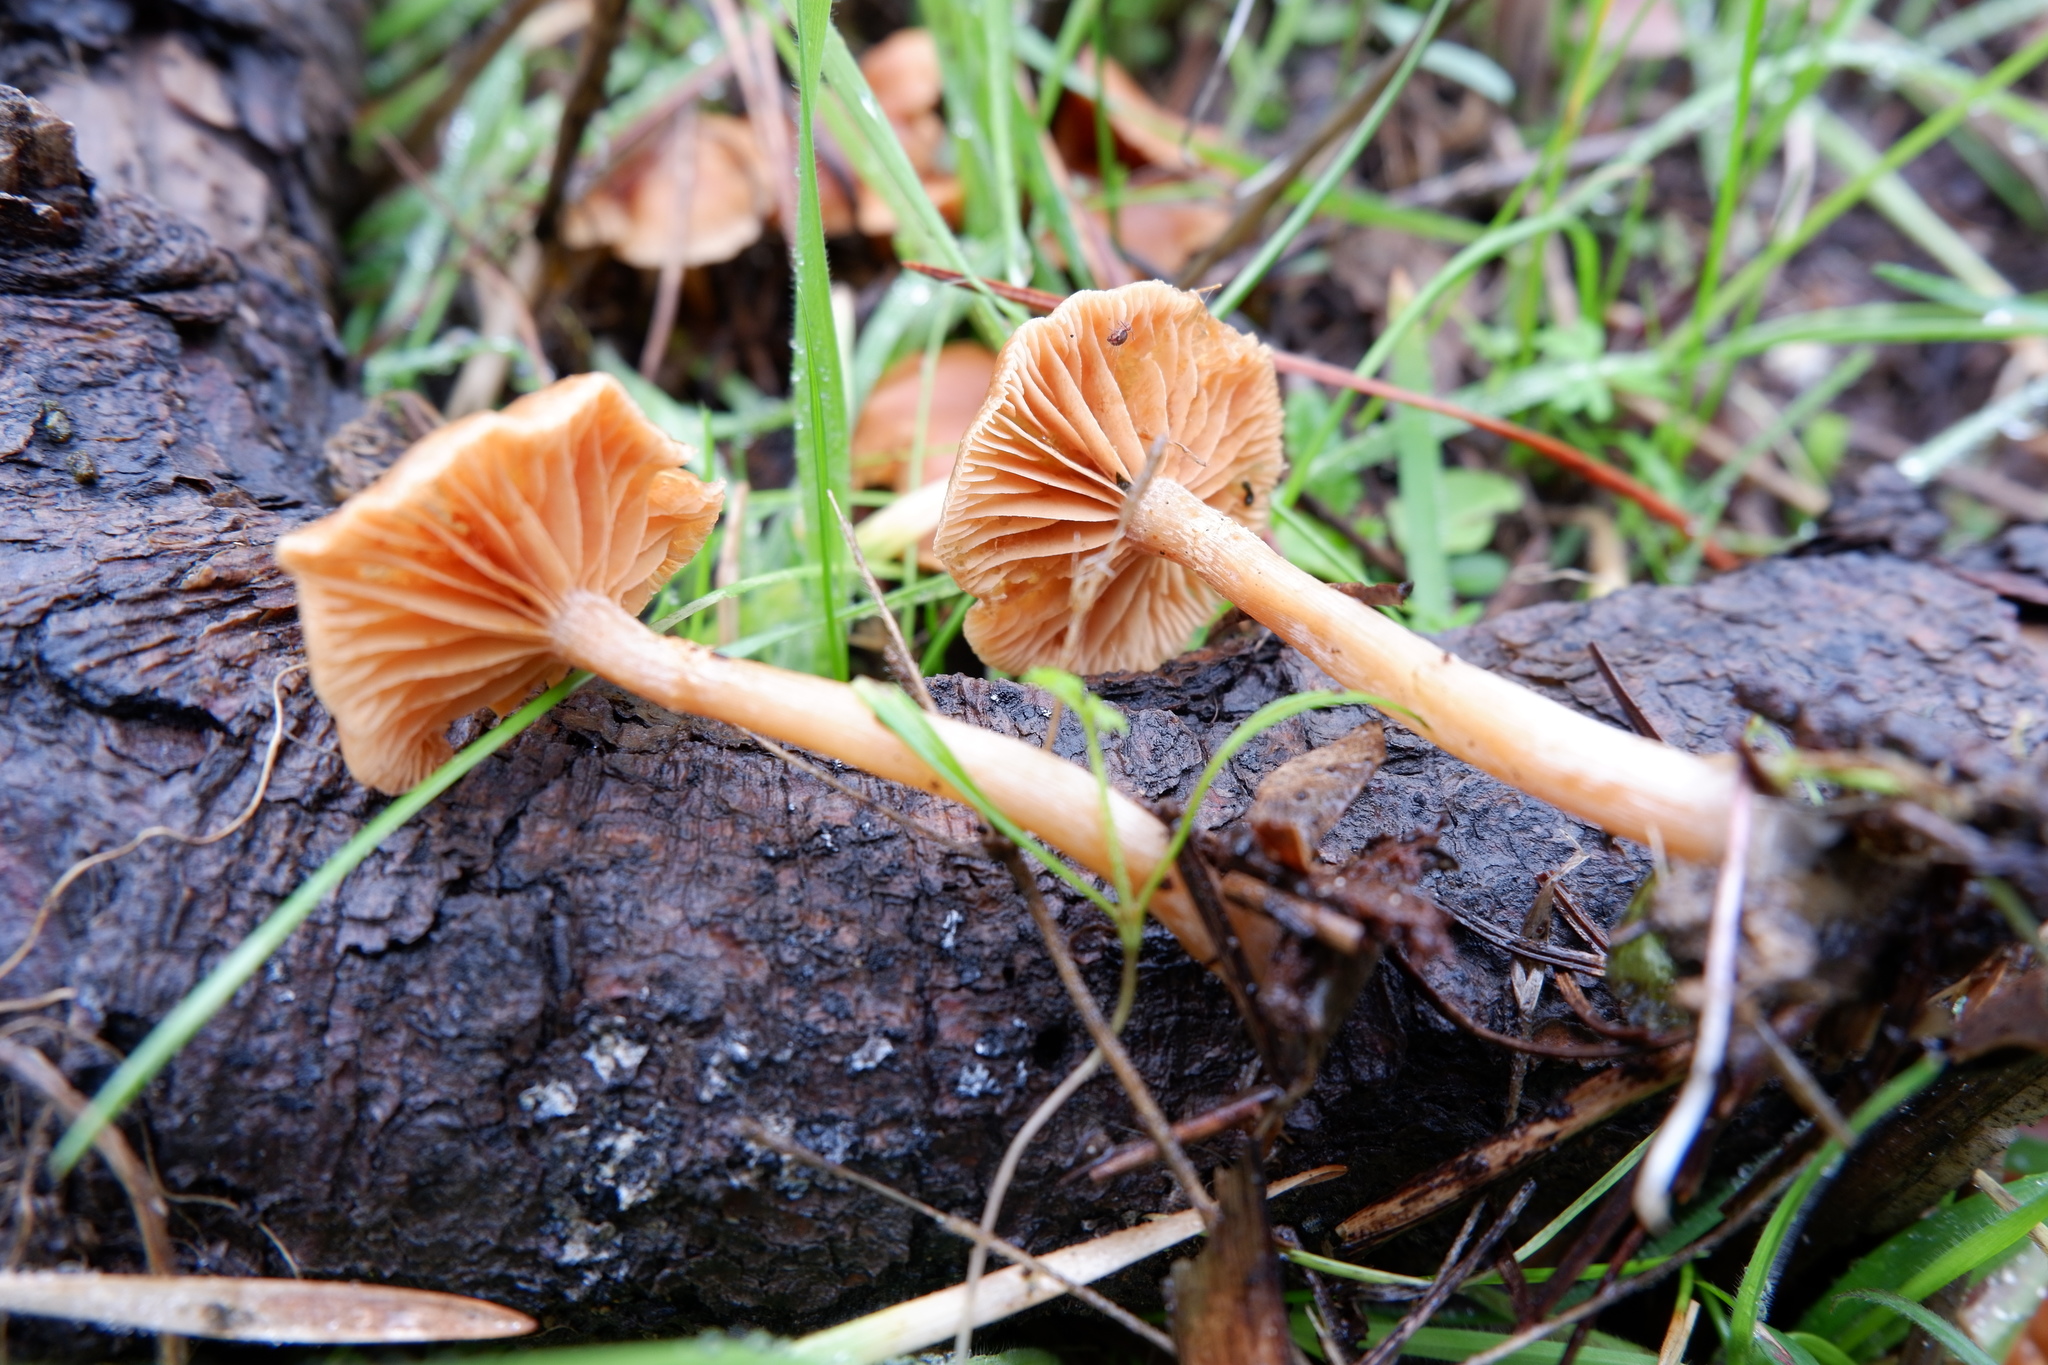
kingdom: Fungi
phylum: Basidiomycota
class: Agaricomycetes
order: Agaricales
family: Tubariaceae
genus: Tubaria
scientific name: Tubaria furfuracea
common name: Scurfy twiglet
